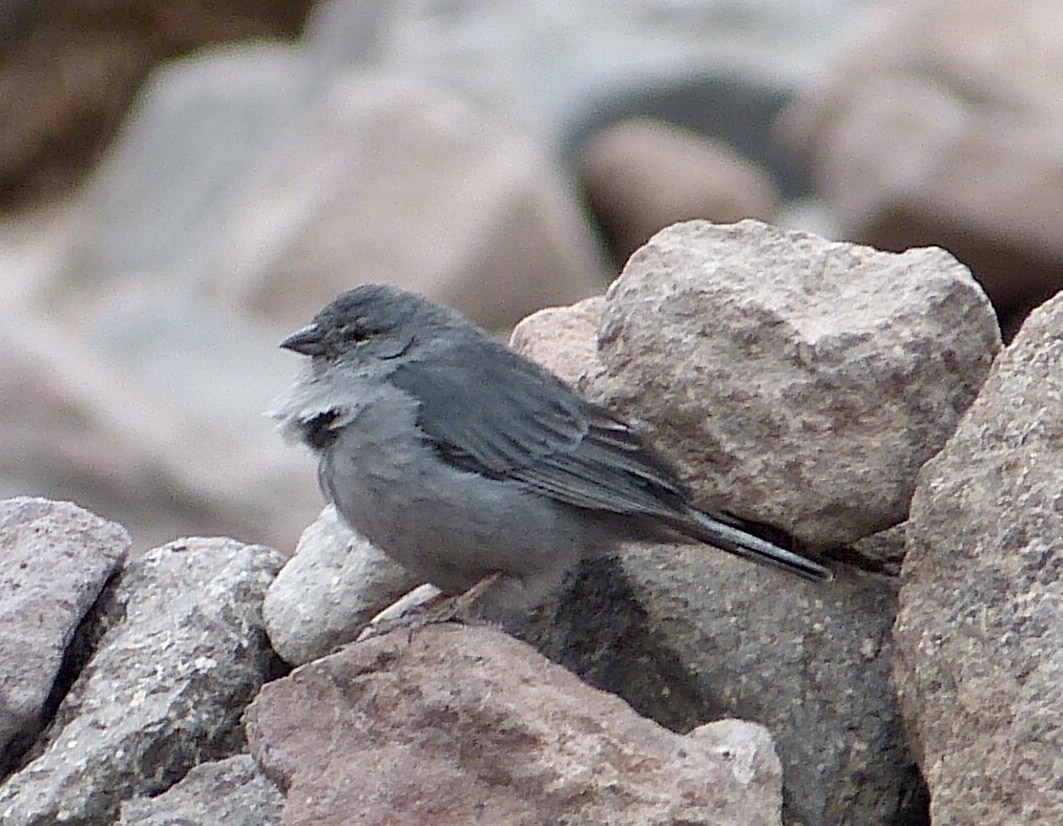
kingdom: Animalia
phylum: Chordata
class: Aves
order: Passeriformes
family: Thraupidae
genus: Geospizopsis
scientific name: Geospizopsis unicolor
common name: Plumbeous sierra-finch
